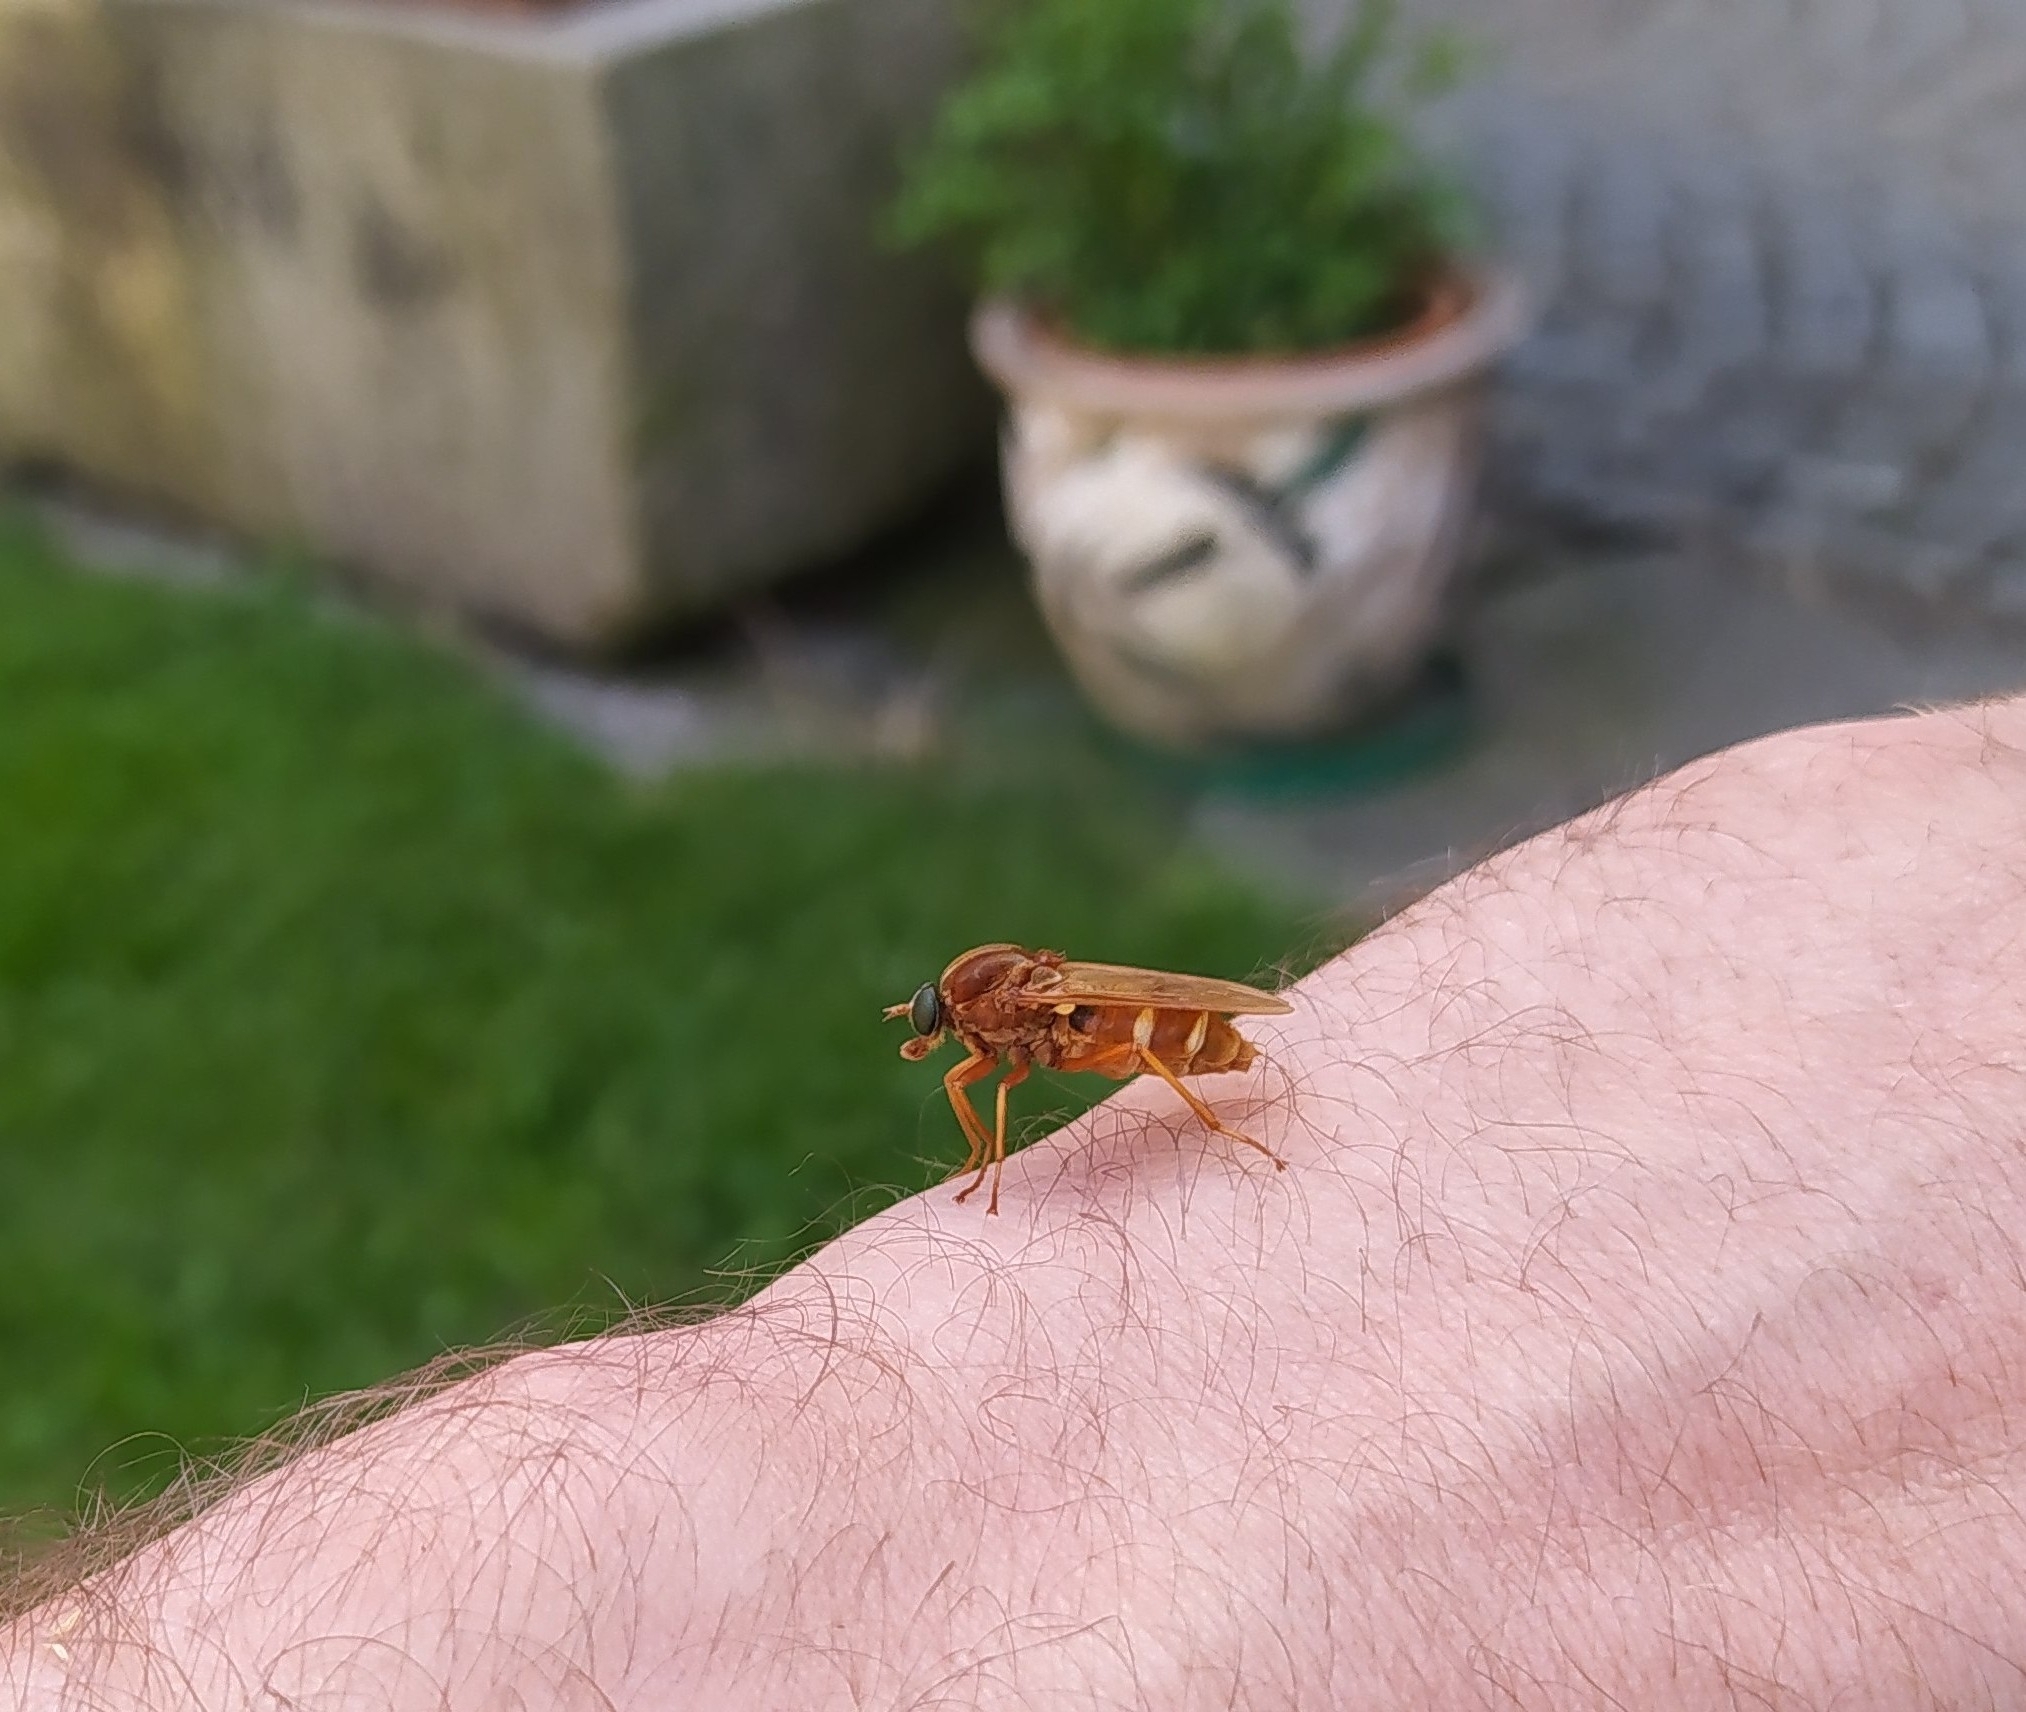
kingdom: Animalia
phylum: Arthropoda
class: Insecta
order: Diptera
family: Xylophagidae
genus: Coenomyia
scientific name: Coenomyia ferruginea
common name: Stink fly
